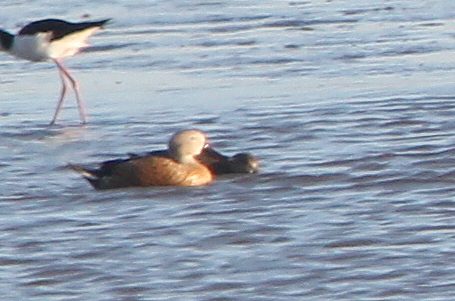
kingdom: Animalia
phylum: Chordata
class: Aves
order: Anseriformes
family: Anatidae
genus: Spatula
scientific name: Spatula platalea
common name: Red shoveler
